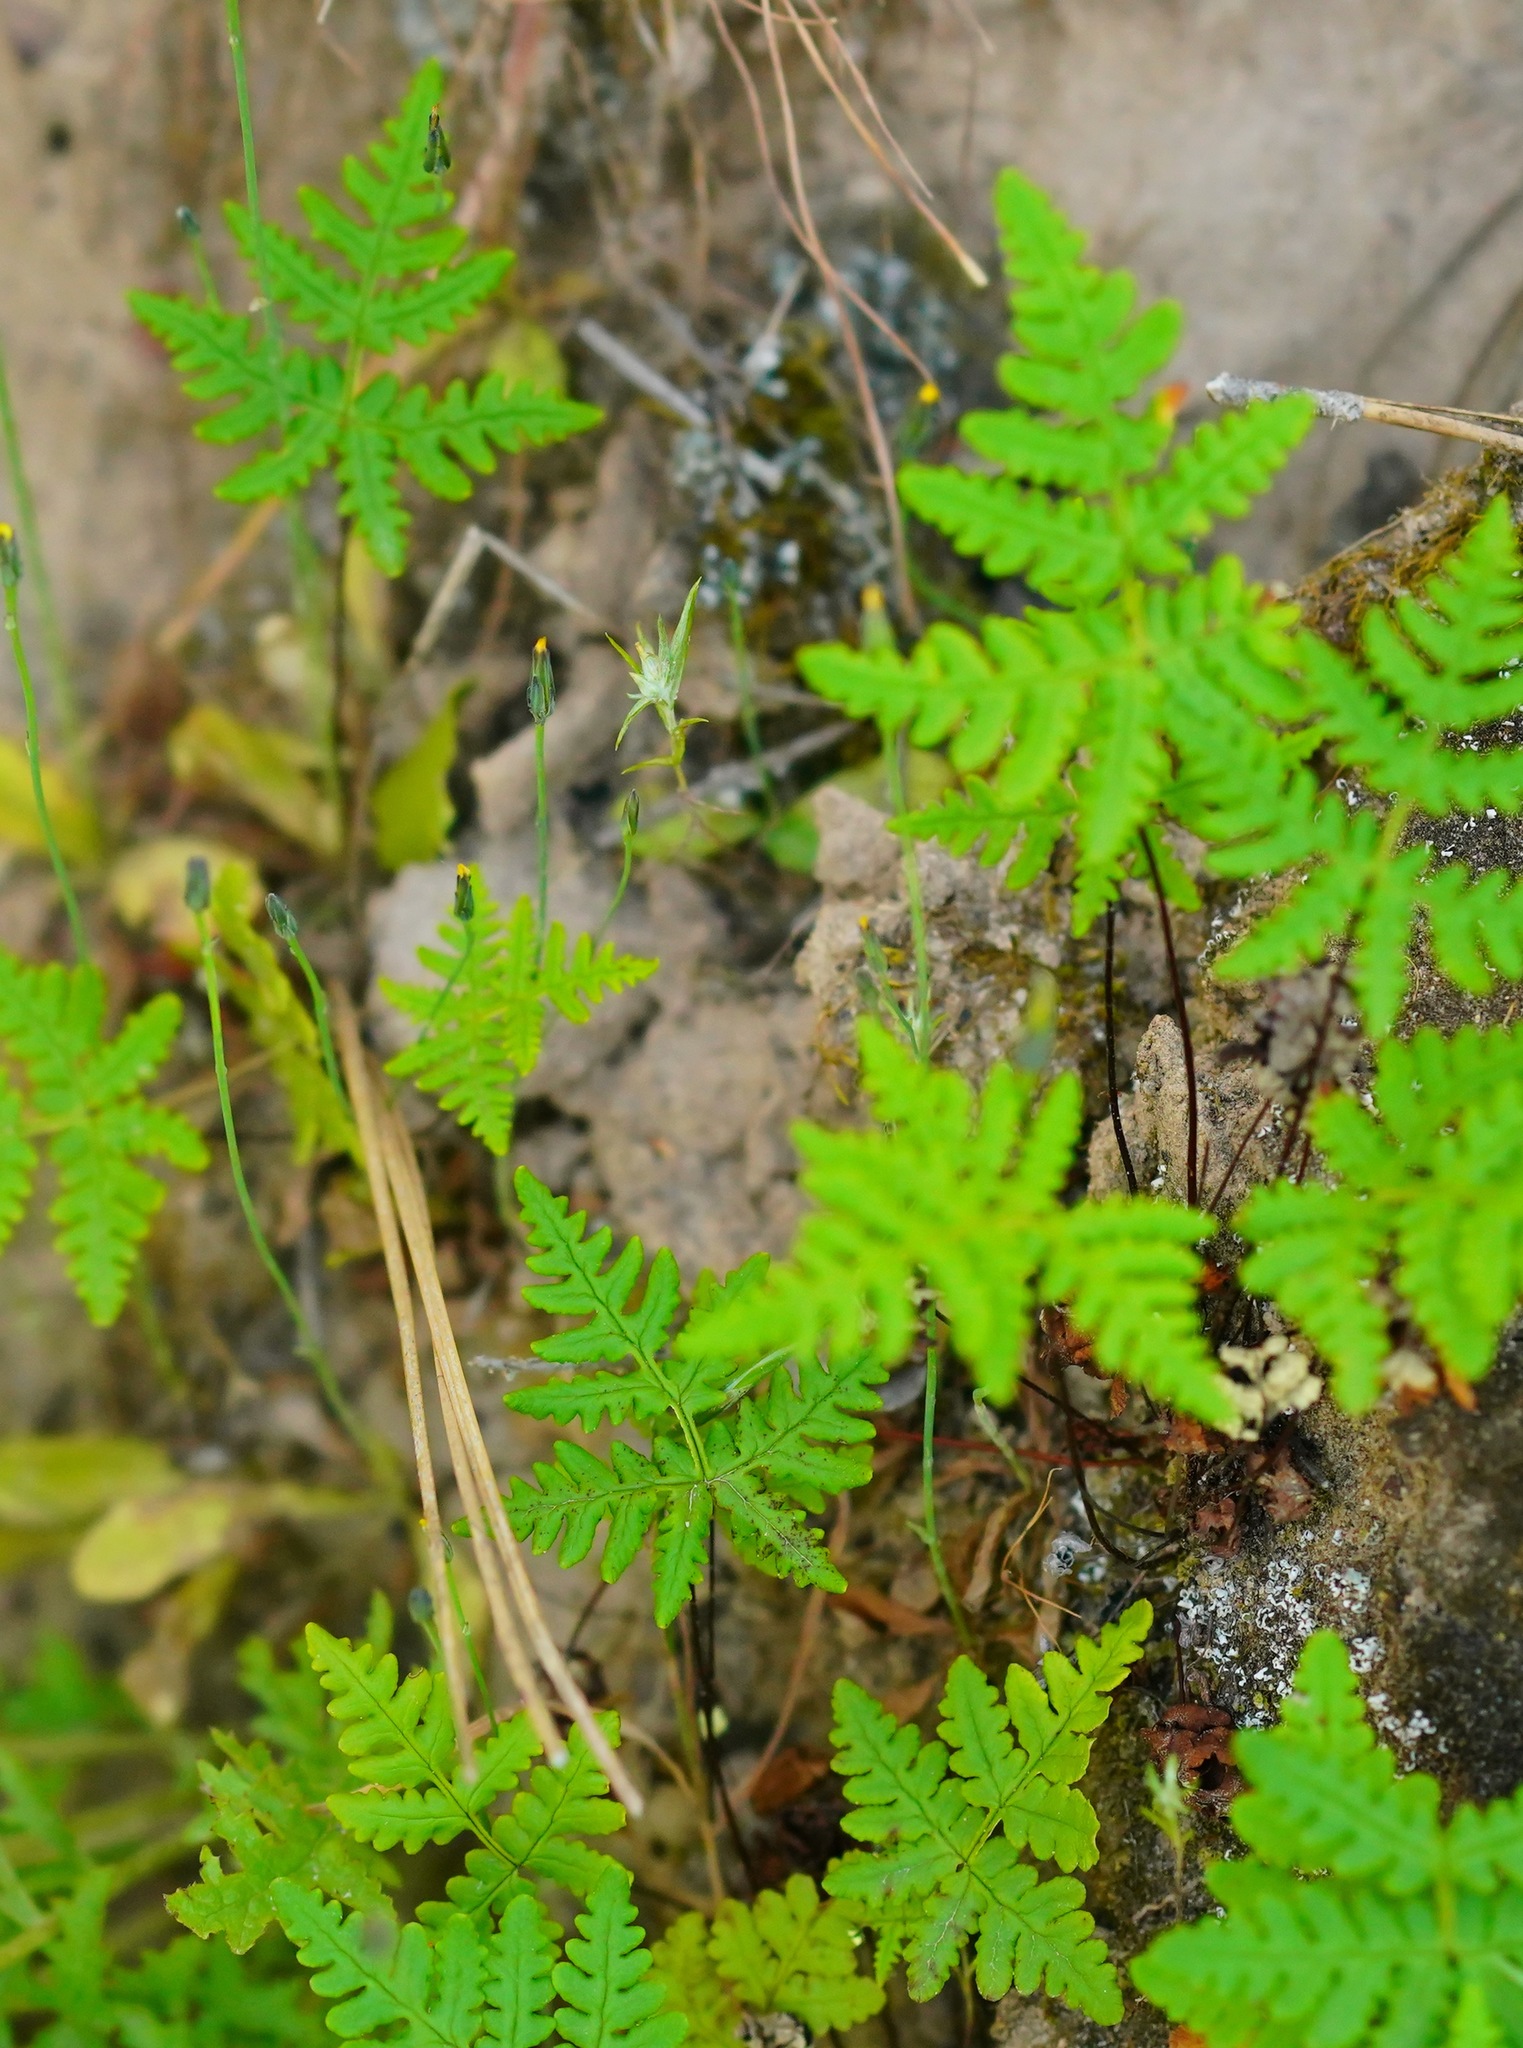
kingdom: Plantae
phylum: Tracheophyta
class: Polypodiopsida
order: Polypodiales
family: Pteridaceae
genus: Pentagramma
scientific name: Pentagramma triangularis
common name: Gold fern
